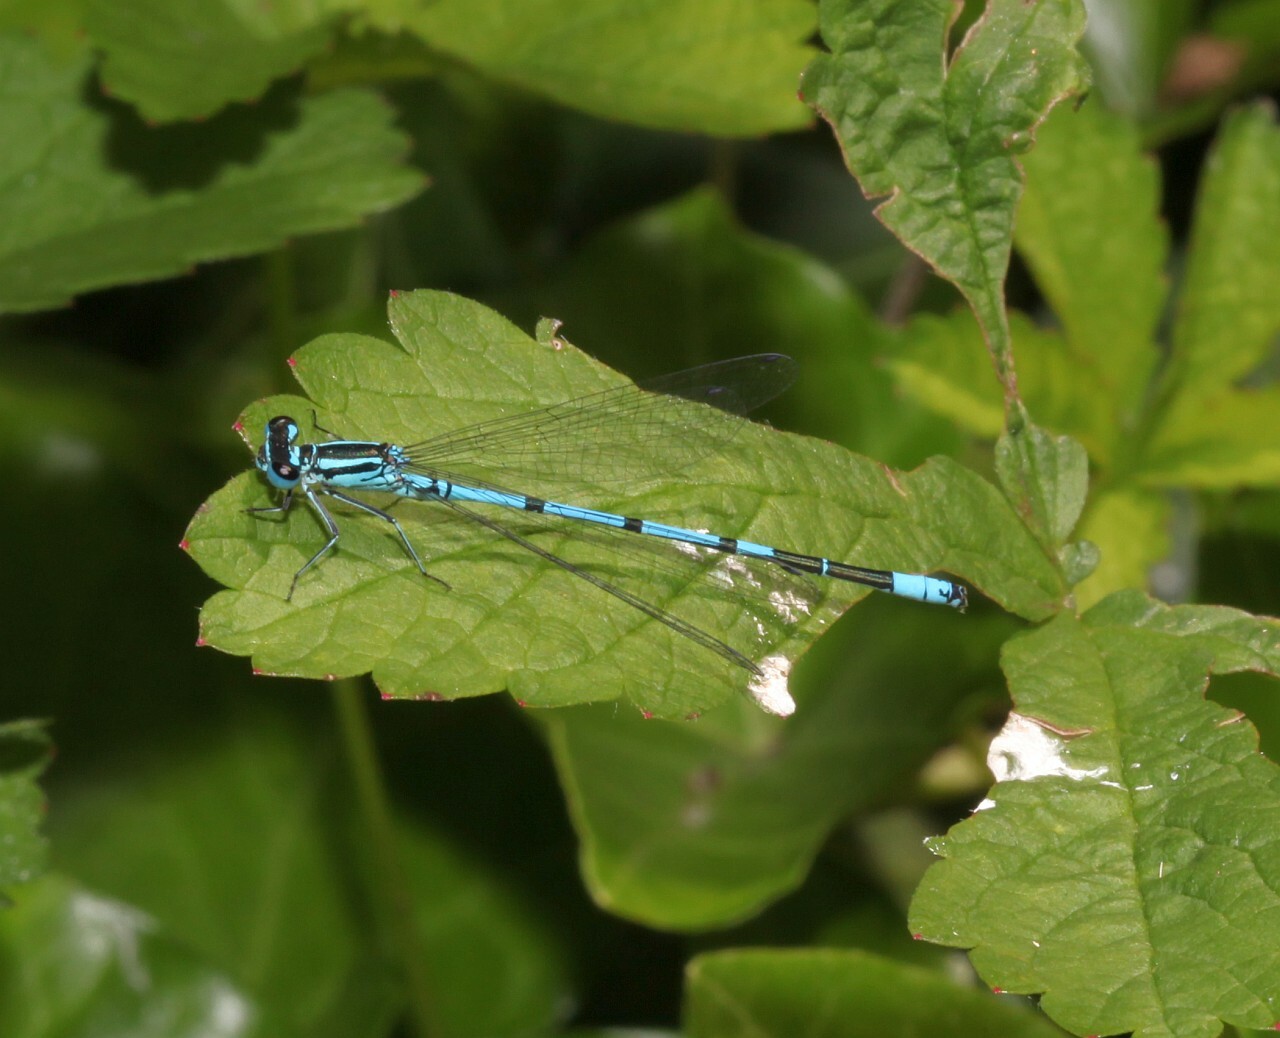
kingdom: Animalia
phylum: Arthropoda
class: Insecta
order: Odonata
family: Coenagrionidae
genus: Coenagrion
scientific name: Coenagrion puella
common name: Azure damselfly
